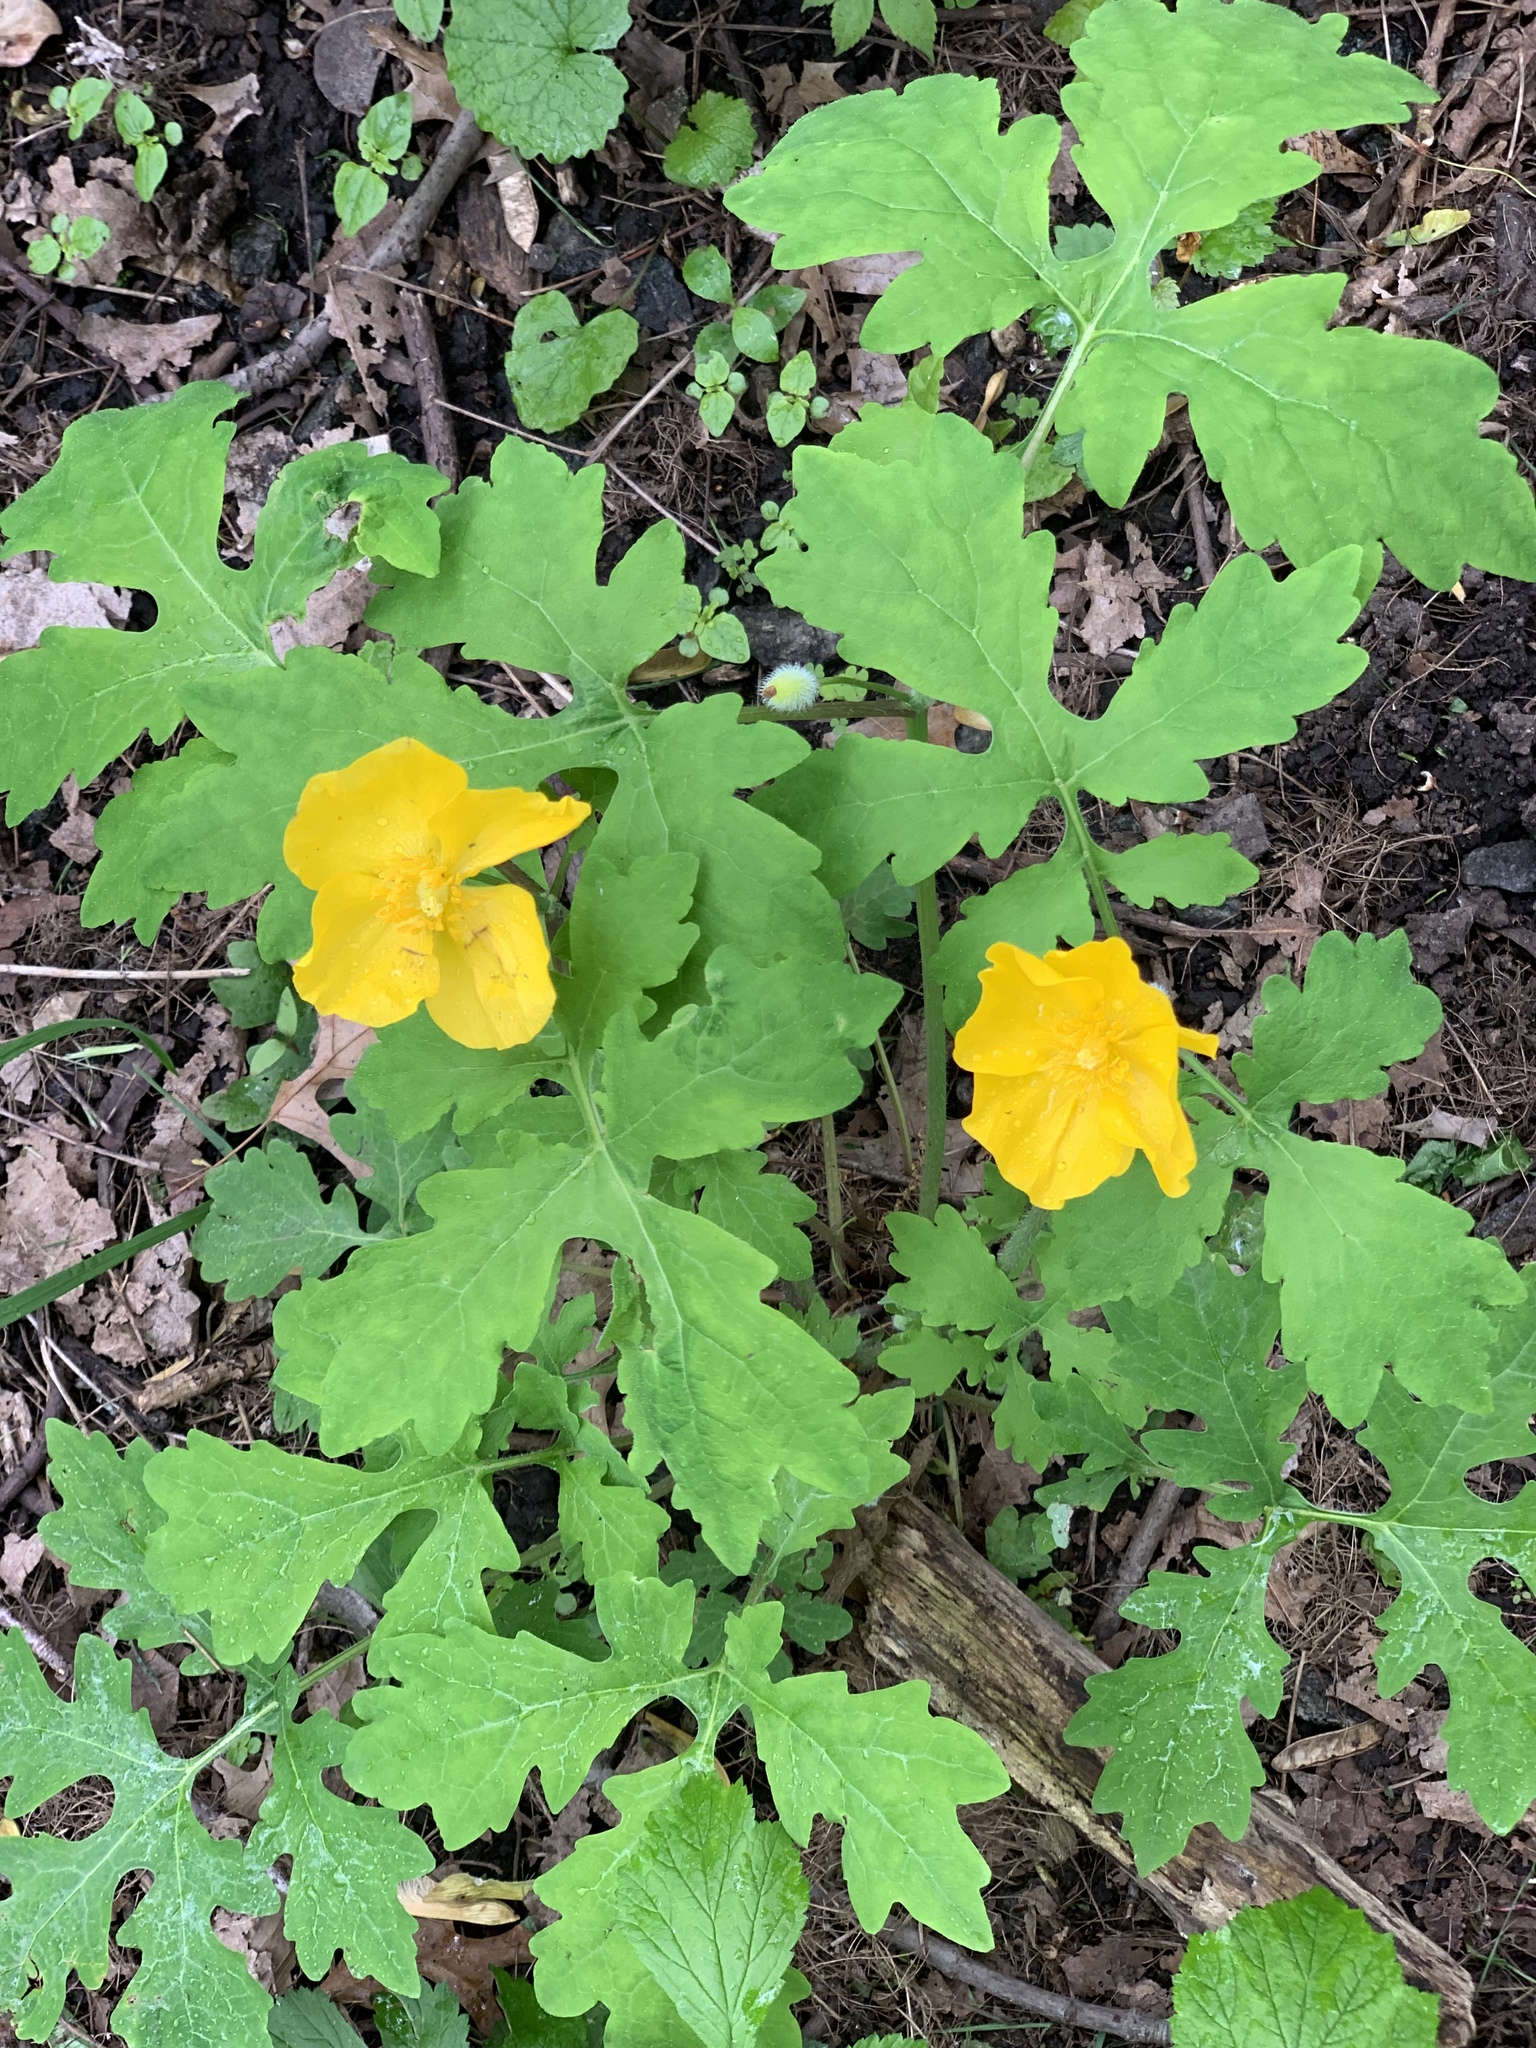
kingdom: Plantae
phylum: Tracheophyta
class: Magnoliopsida
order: Ranunculales
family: Papaveraceae
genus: Stylophorum
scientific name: Stylophorum diphyllum
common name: Celandine poppy
